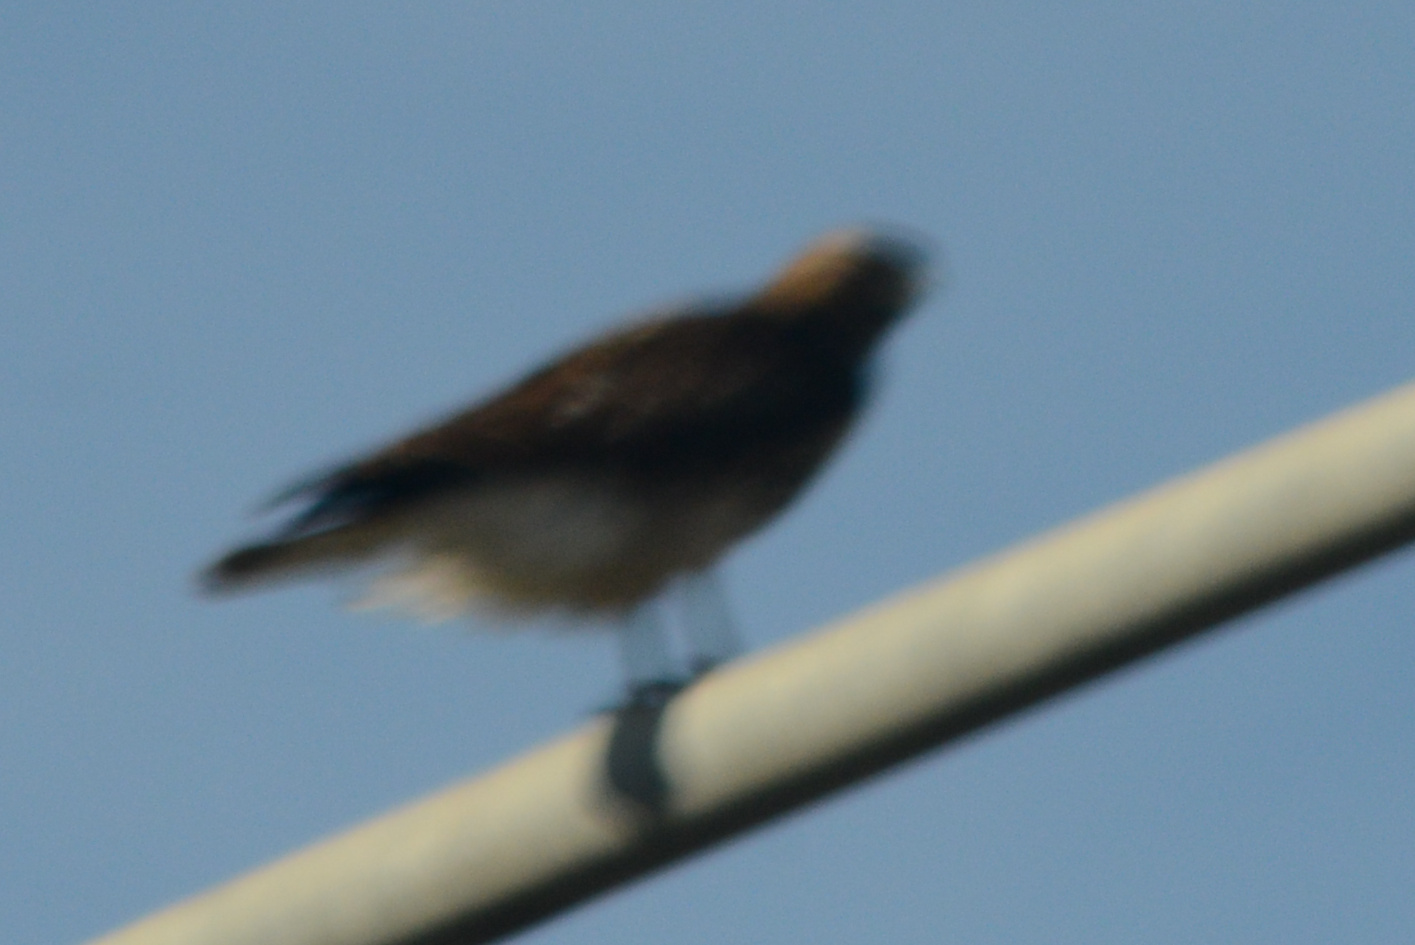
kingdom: Animalia
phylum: Chordata
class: Aves
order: Accipitriformes
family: Accipitridae
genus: Buteo
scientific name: Buteo jamaicensis
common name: Red-tailed hawk
